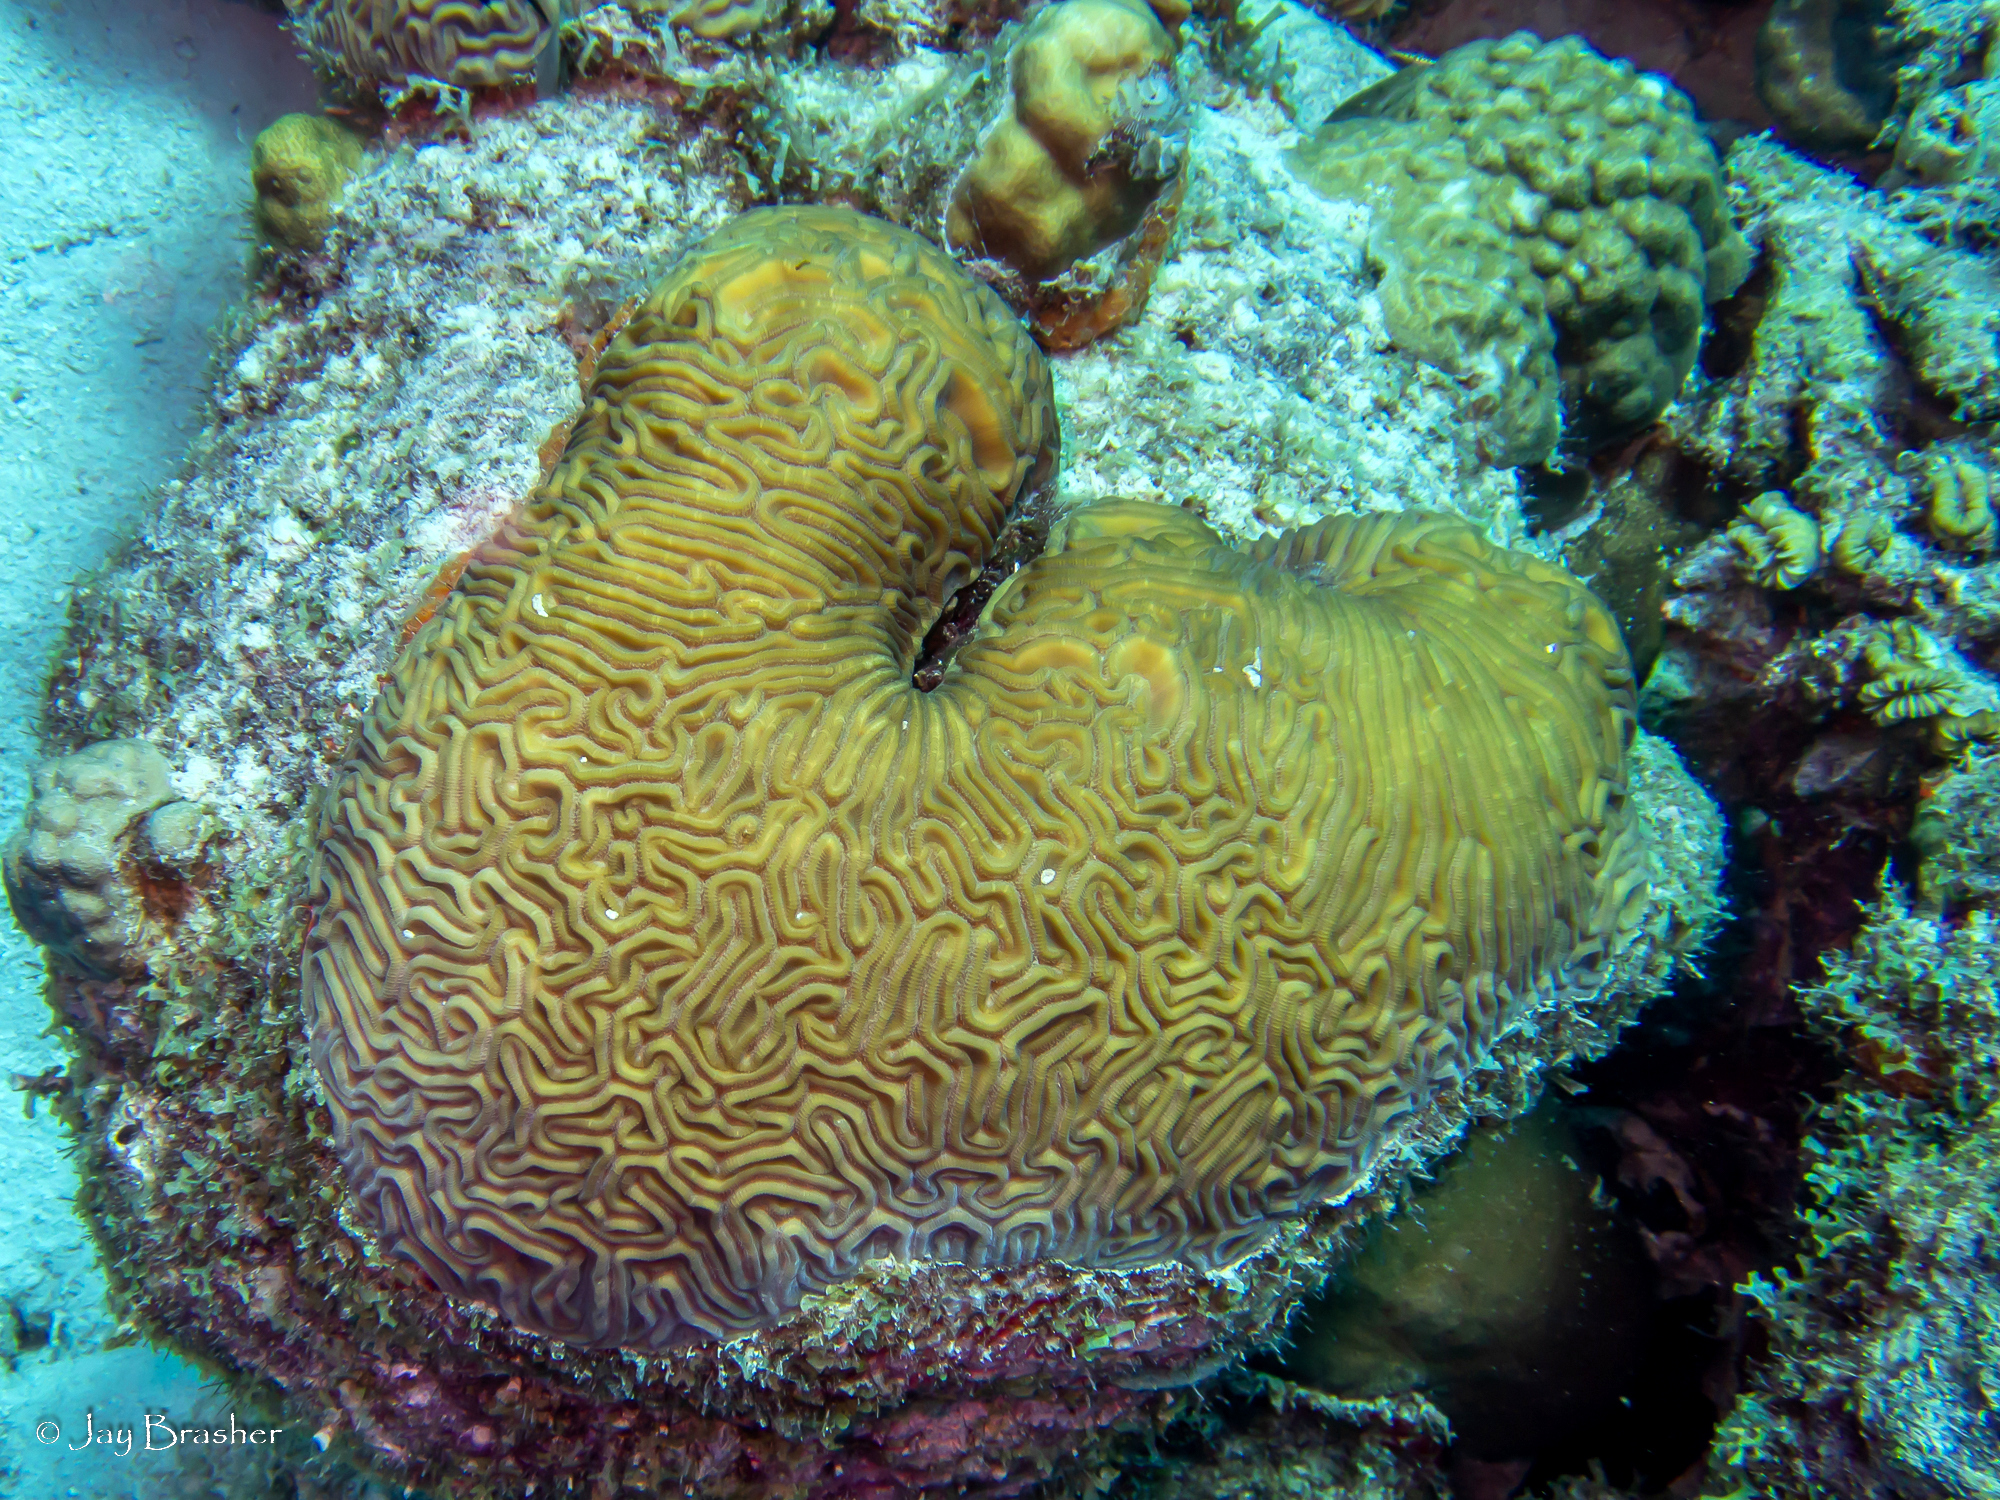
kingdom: Animalia
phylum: Cnidaria
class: Anthozoa
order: Scleractinia
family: Faviidae
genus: Pseudodiploria
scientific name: Pseudodiploria strigosa
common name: Symmetrical brain coral
